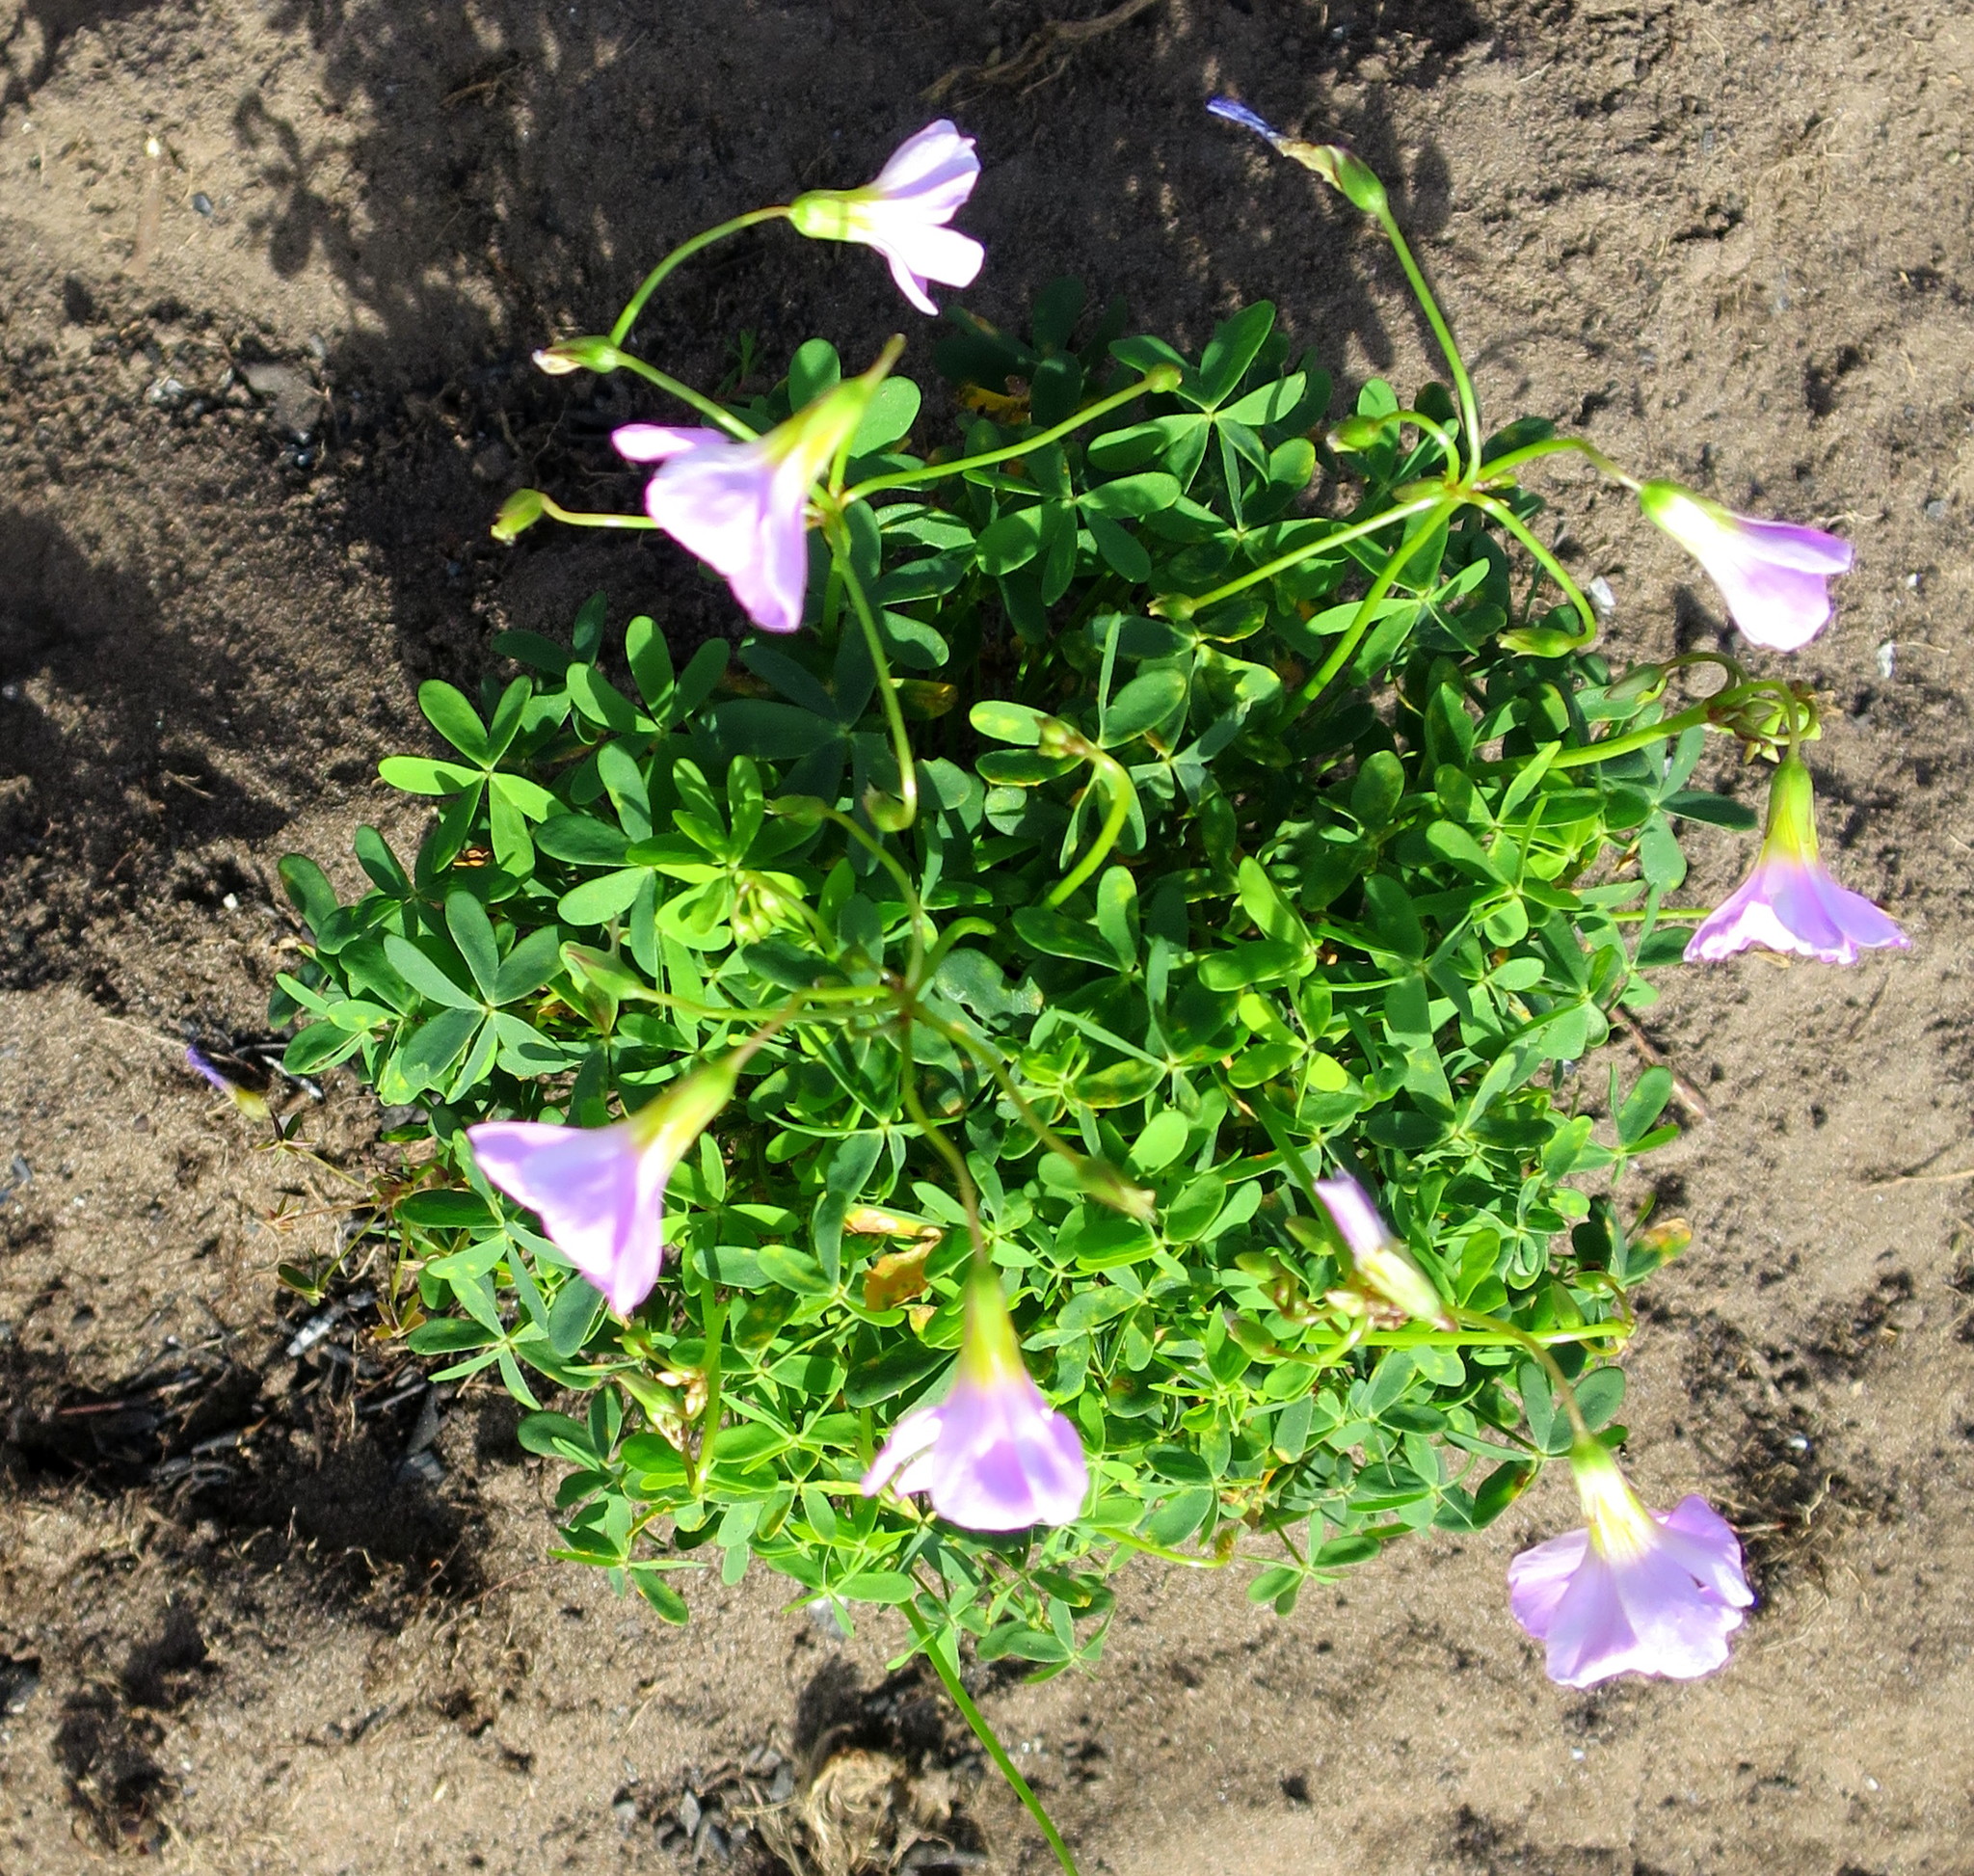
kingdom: Plantae
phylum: Tracheophyta
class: Magnoliopsida
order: Oxalidales
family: Oxalidaceae
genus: Oxalis
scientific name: Oxalis caprina
